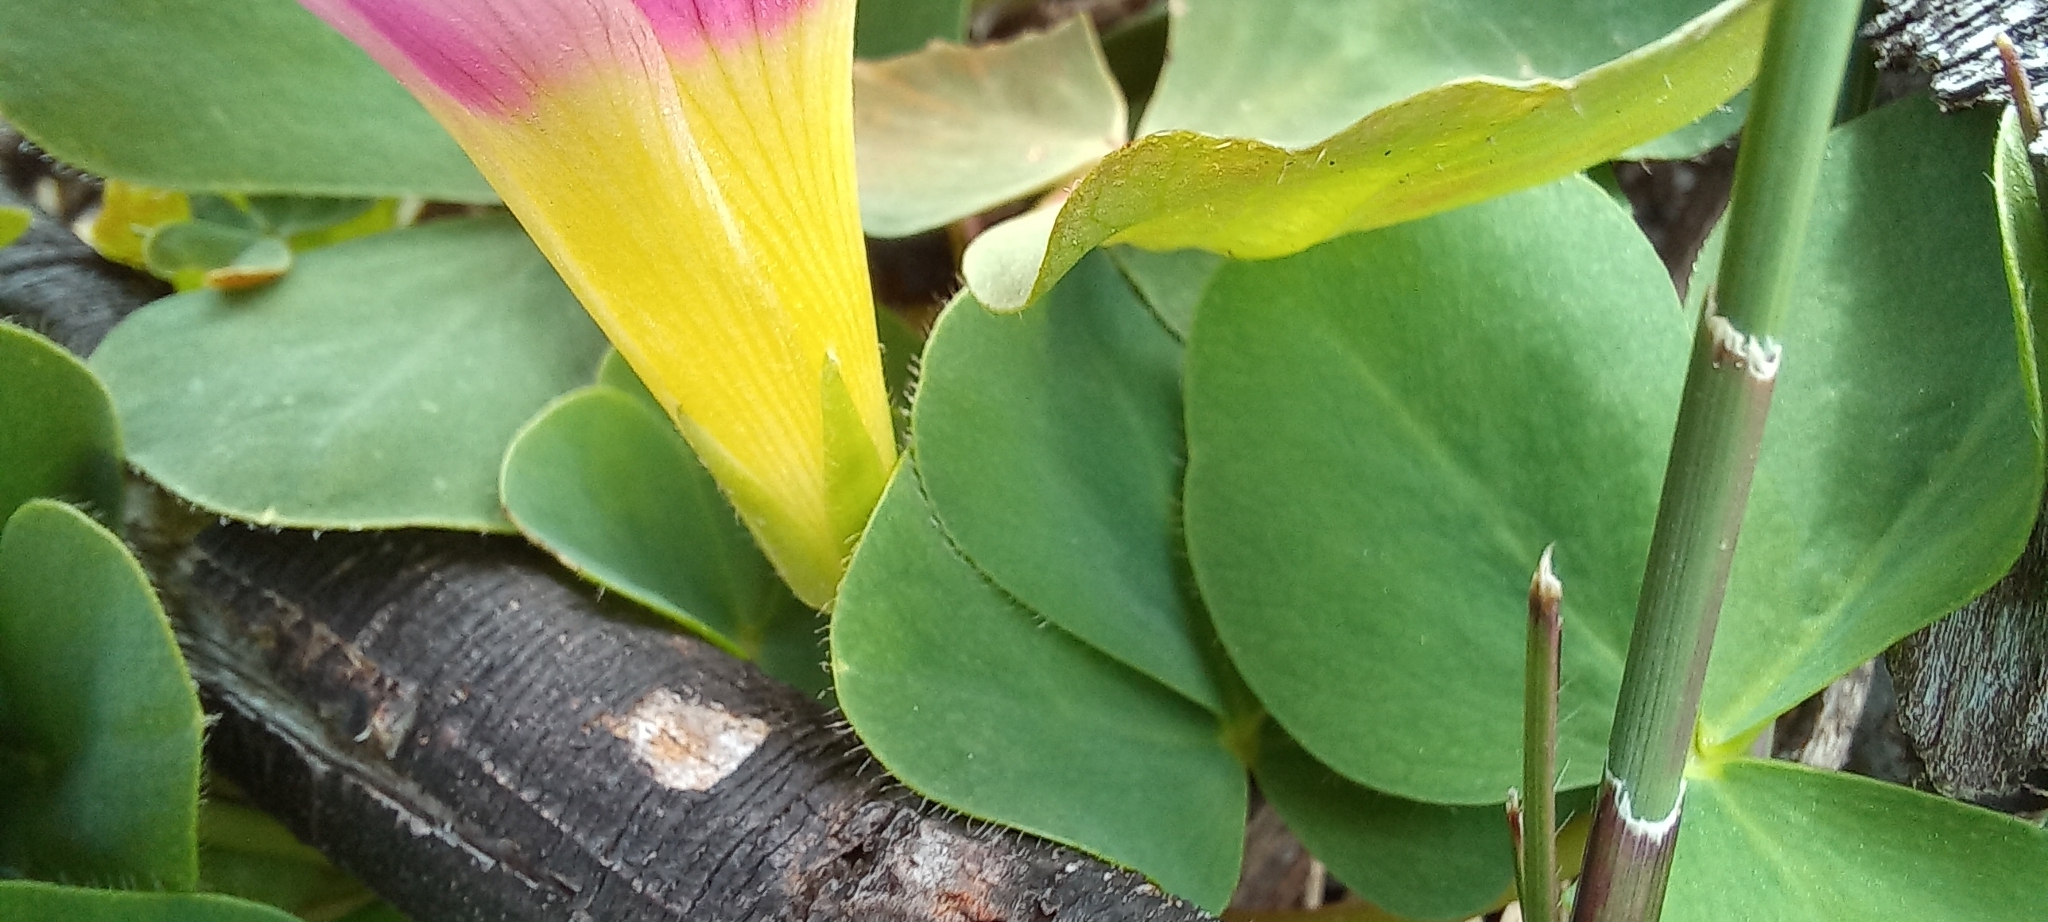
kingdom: Plantae
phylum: Tracheophyta
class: Magnoliopsida
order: Oxalidales
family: Oxalidaceae
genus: Oxalis
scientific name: Oxalis purpurea
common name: Purple woodsorrel
